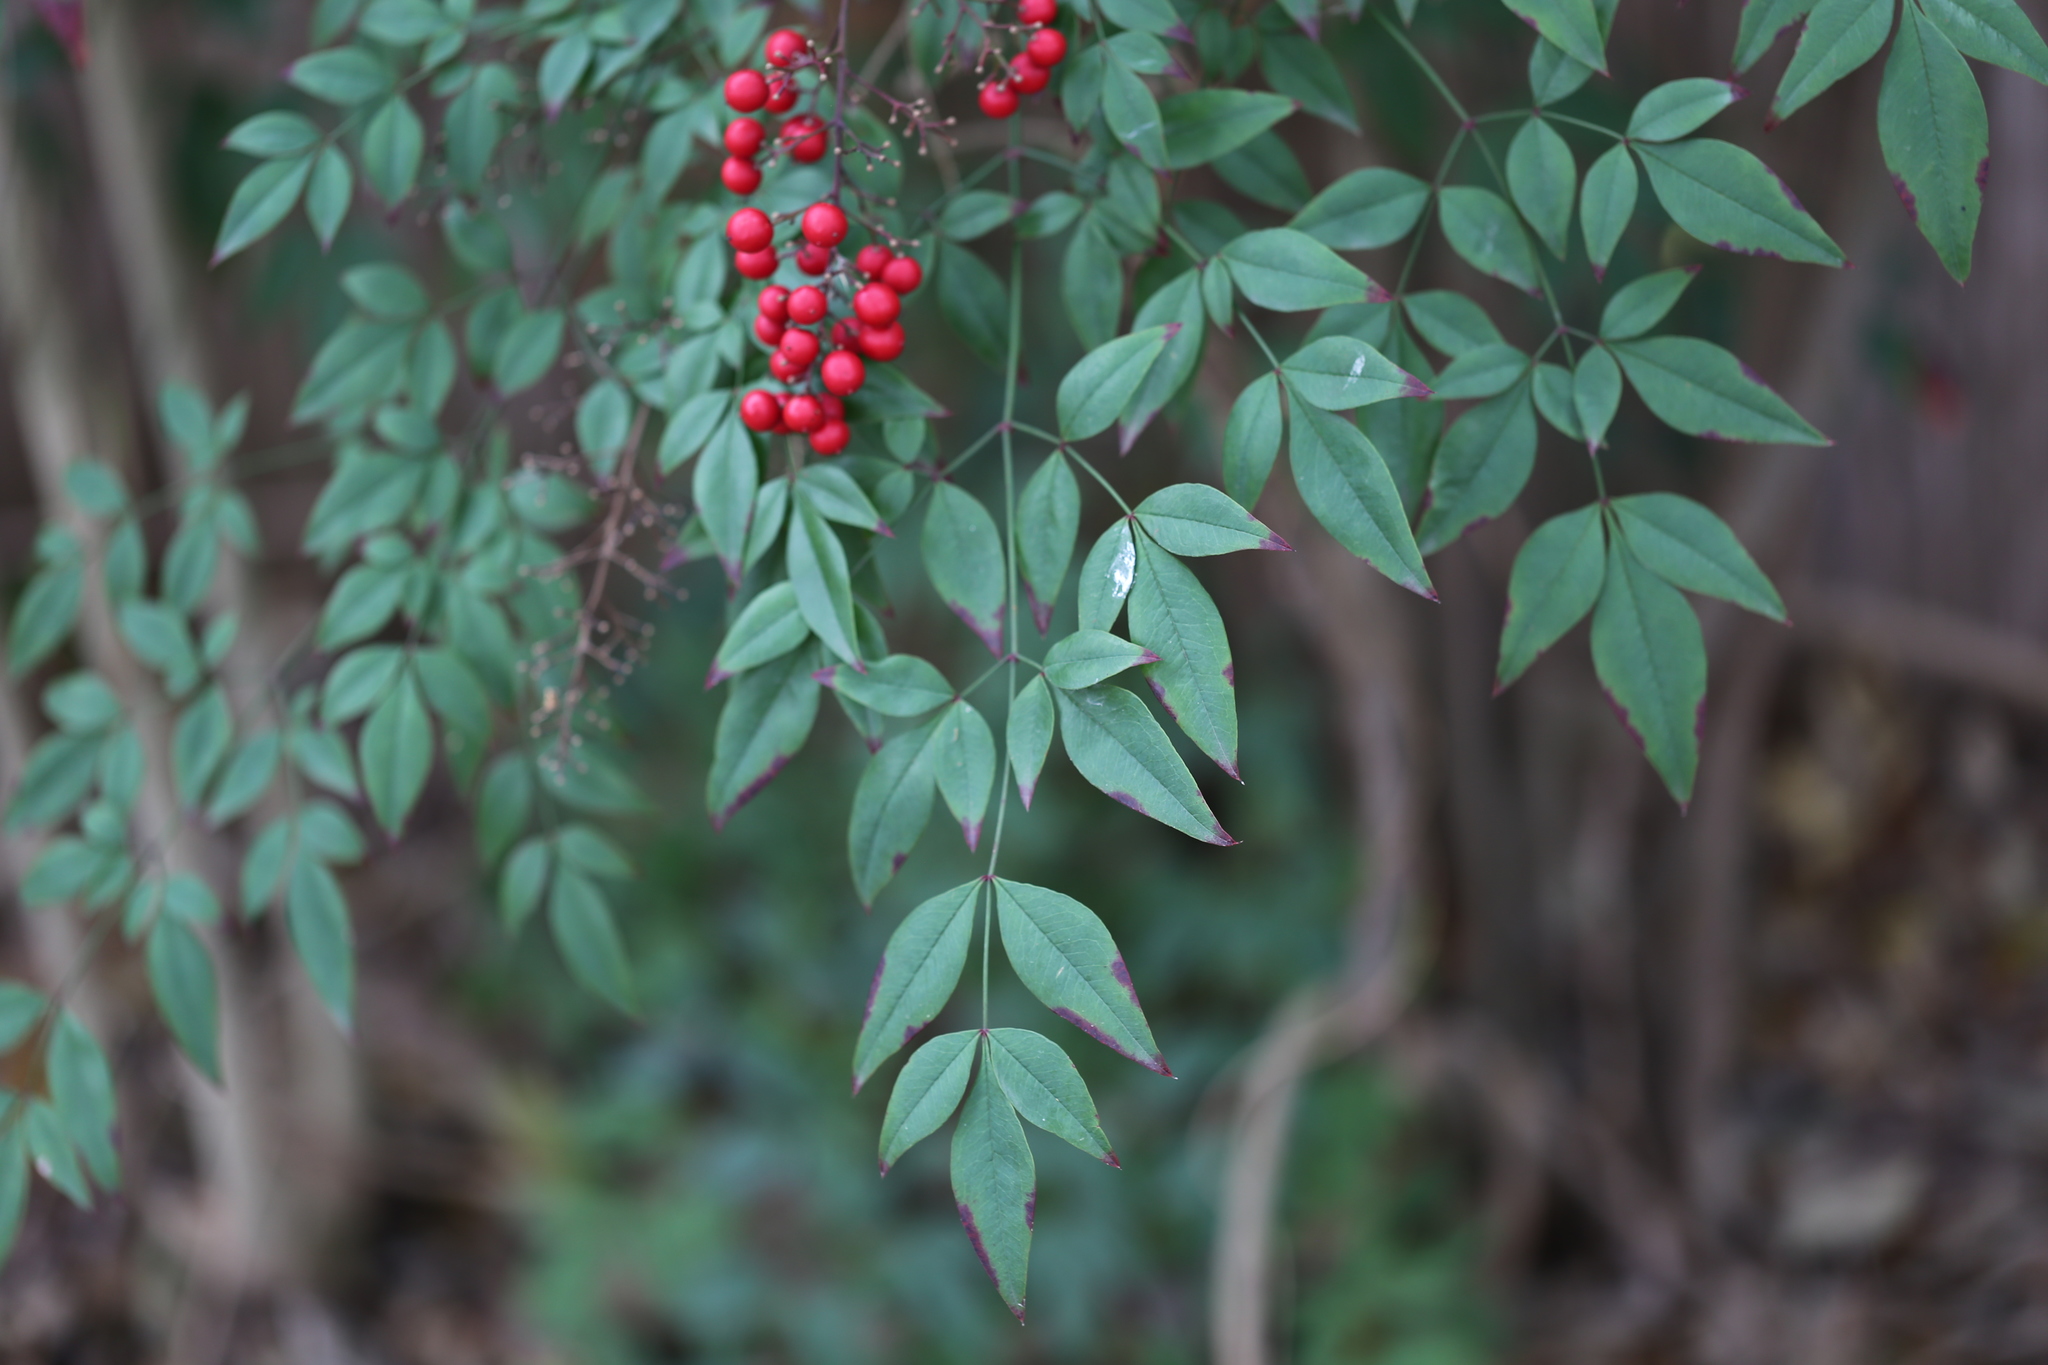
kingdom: Plantae
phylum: Tracheophyta
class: Magnoliopsida
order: Ranunculales
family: Berberidaceae
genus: Nandina
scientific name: Nandina domestica
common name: Sacred bamboo
